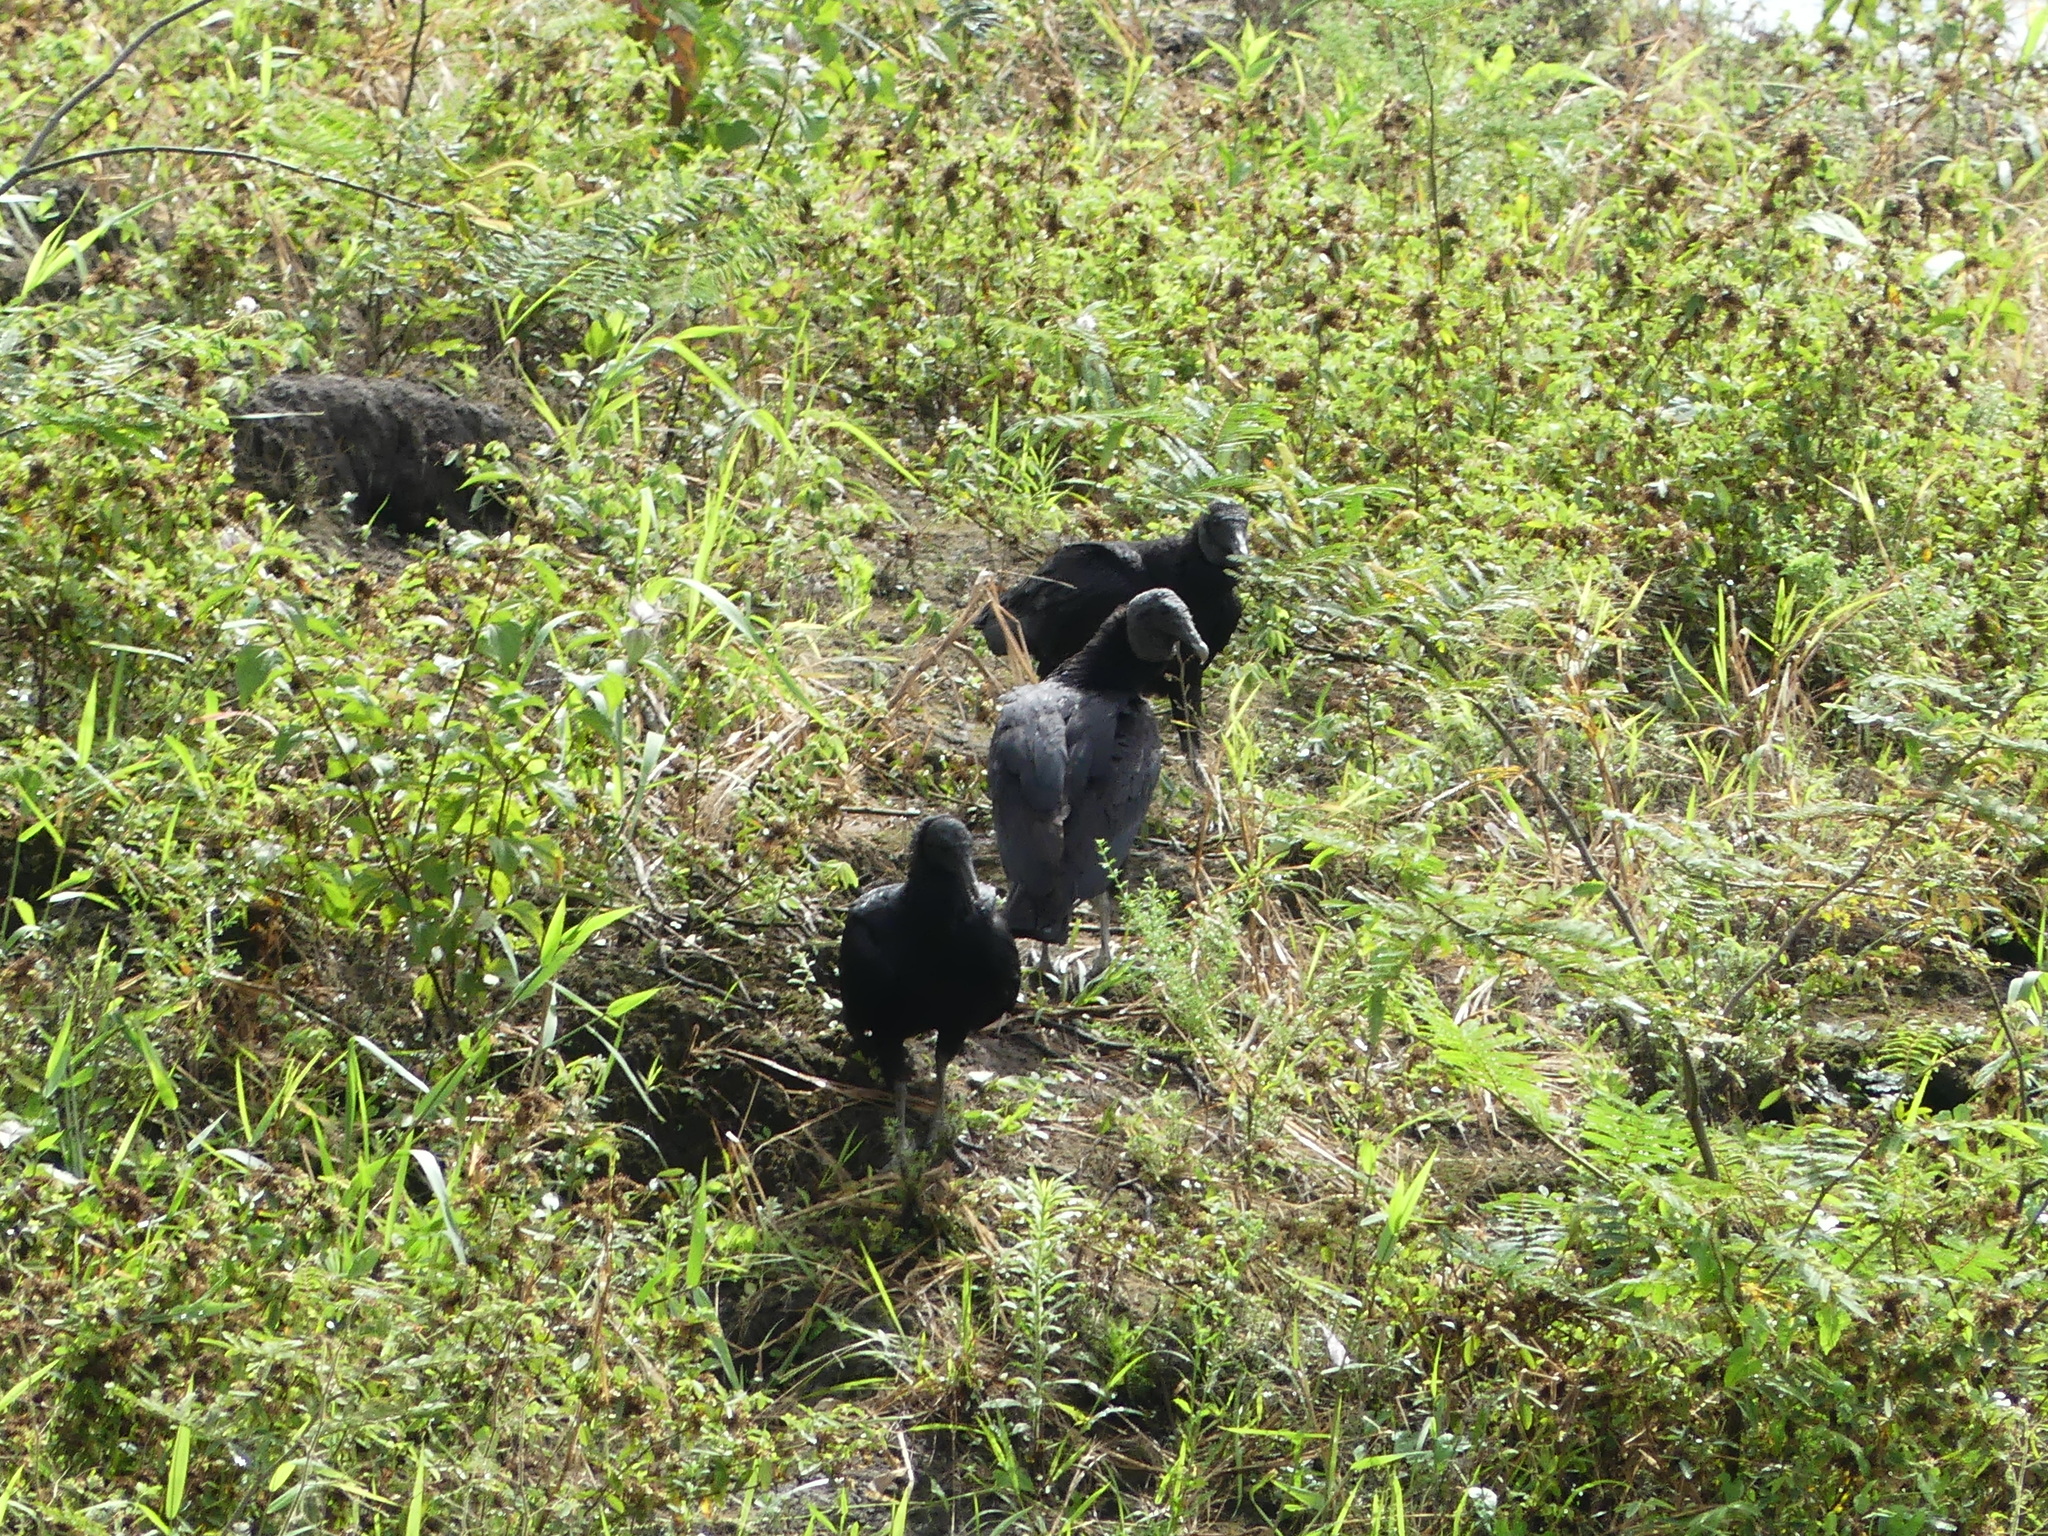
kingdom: Animalia
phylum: Chordata
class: Aves
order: Accipitriformes
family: Cathartidae
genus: Coragyps
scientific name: Coragyps atratus
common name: Black vulture
